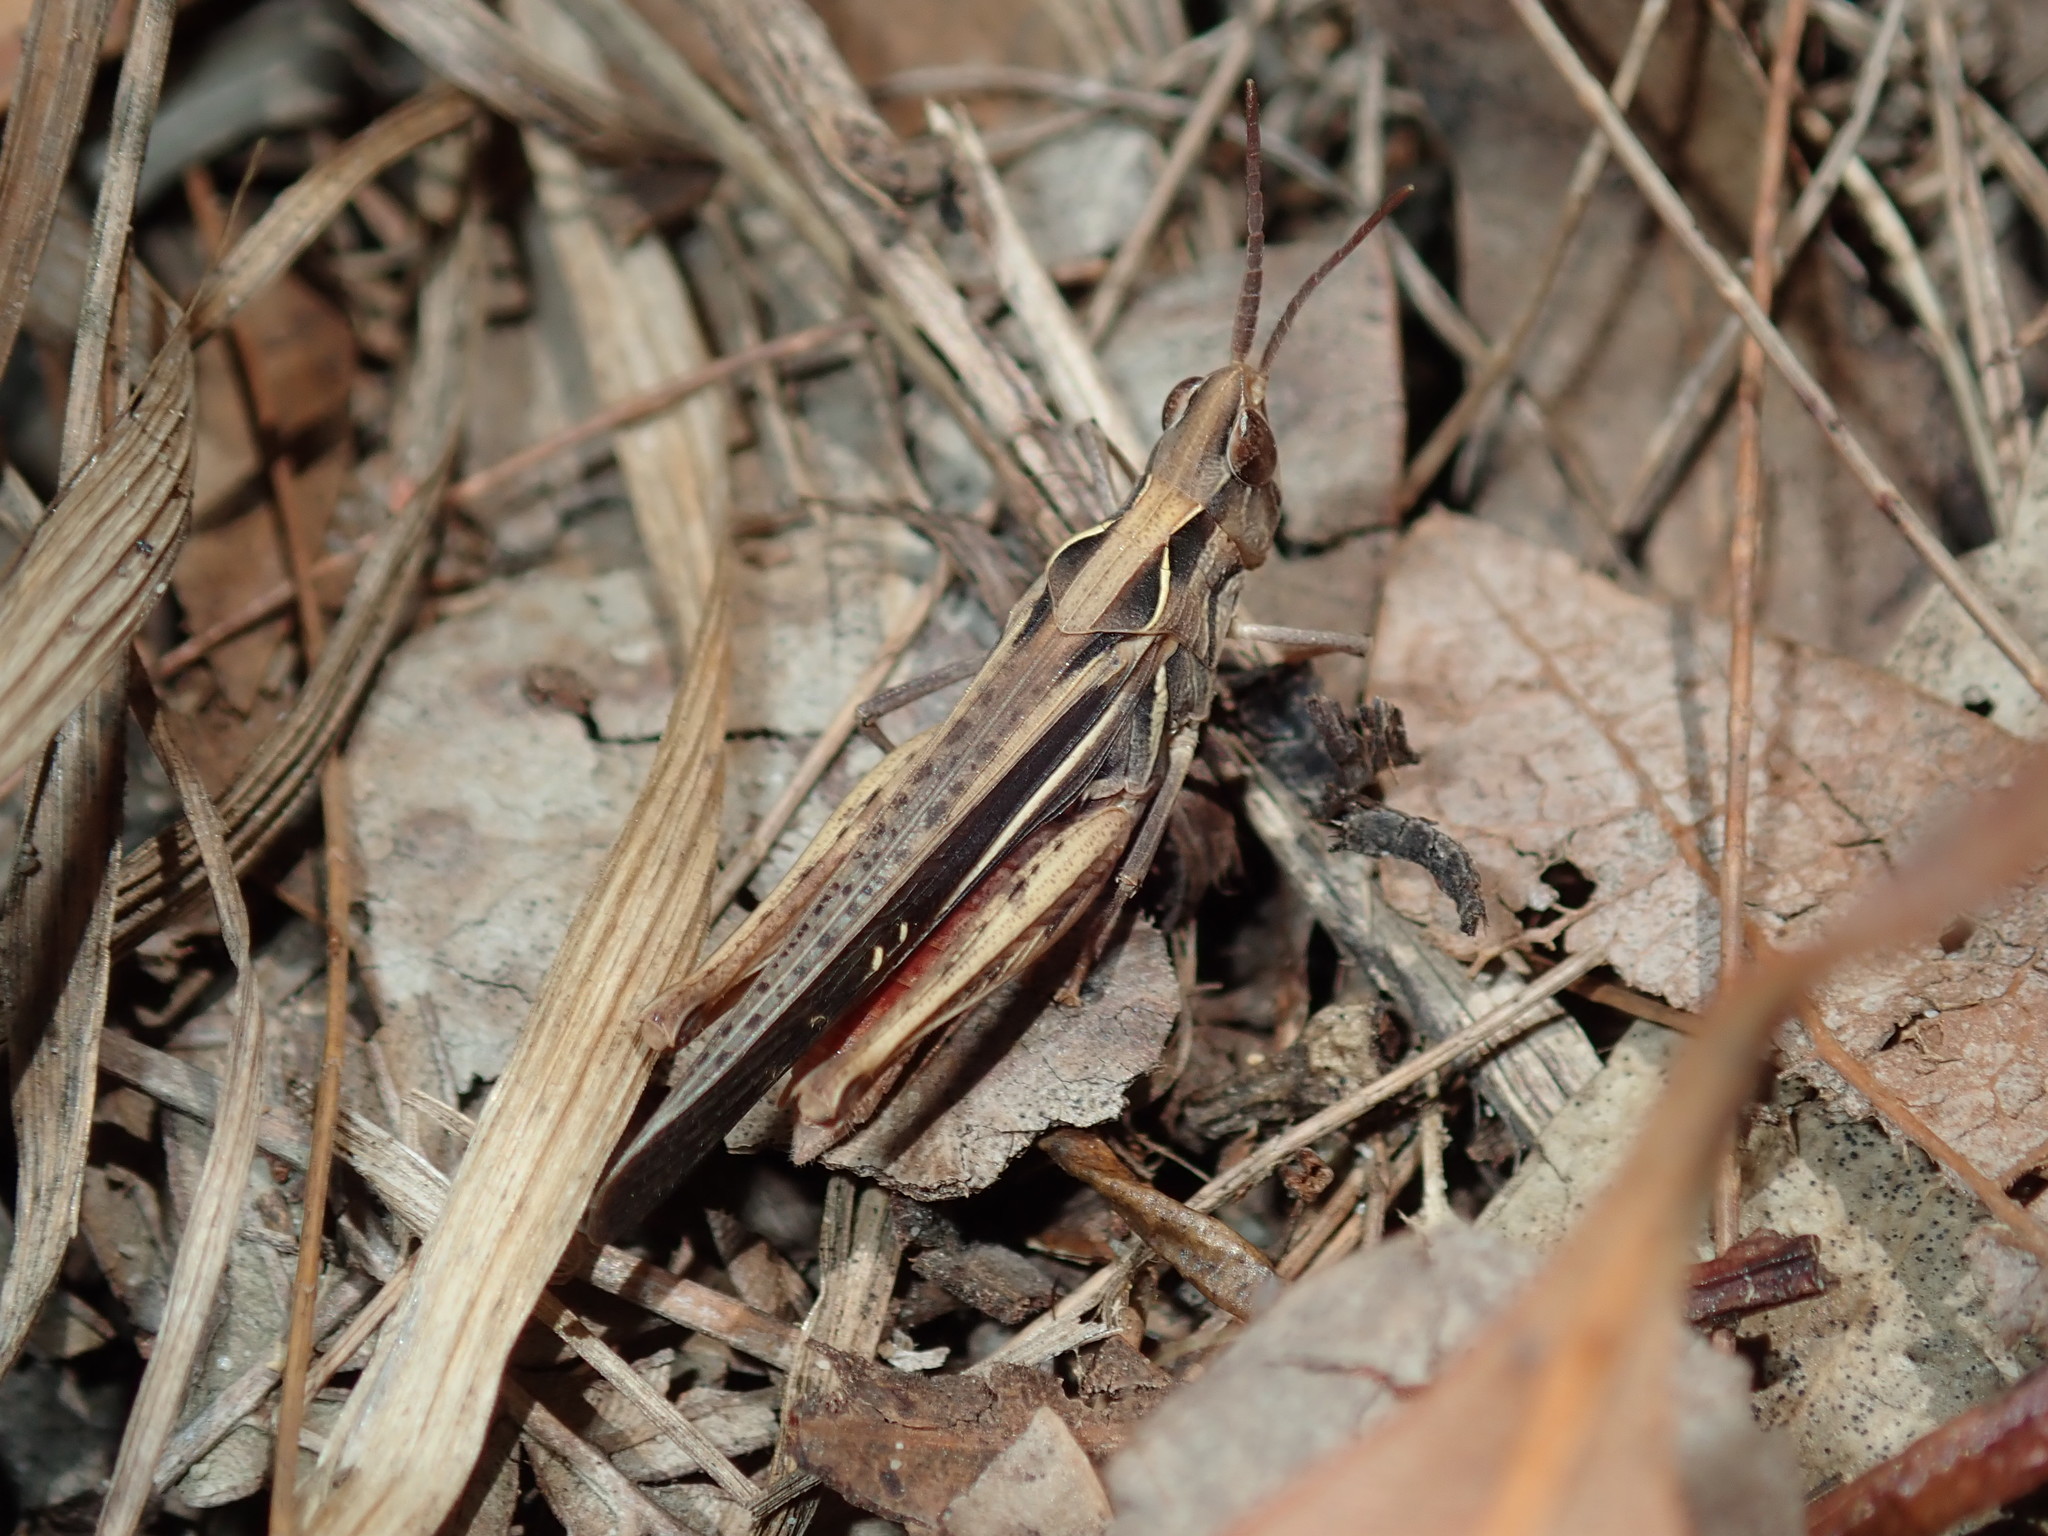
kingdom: Animalia
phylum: Arthropoda
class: Insecta
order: Orthoptera
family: Acrididae
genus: Froggattina
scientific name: Froggattina australis
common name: Froggatt's buzzer
